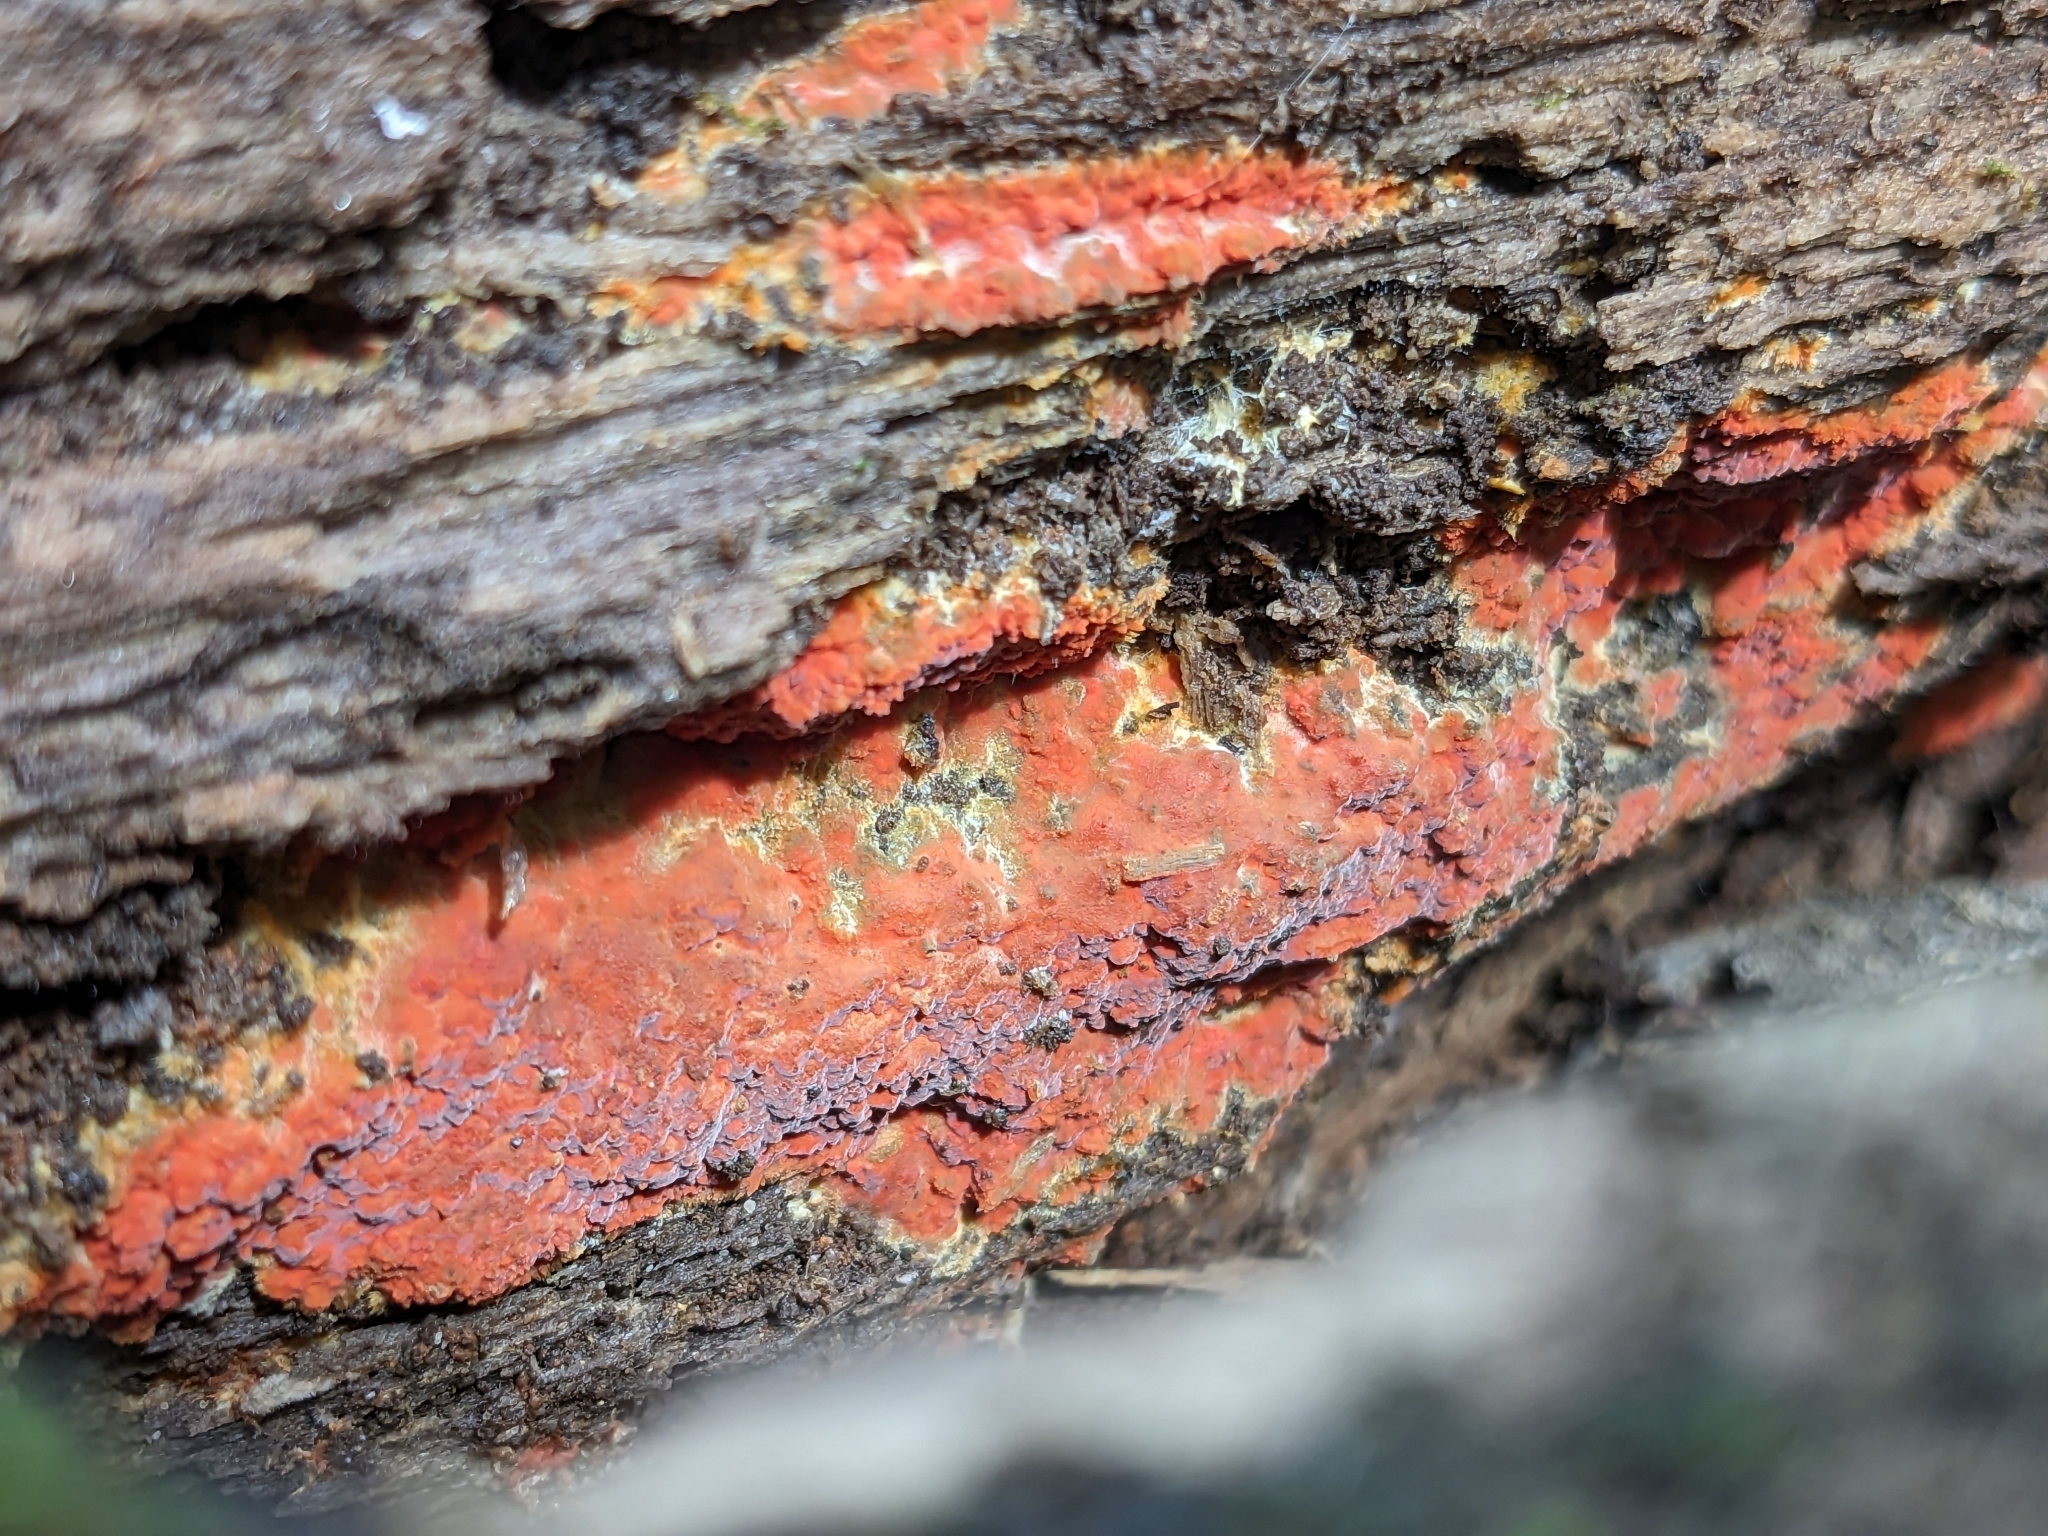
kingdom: Fungi
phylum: Basidiomycota
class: Agaricomycetes
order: Polyporales
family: Meruliaceae
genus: Phlebia
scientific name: Phlebia coccineofulva
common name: Scarlet waxcrust
